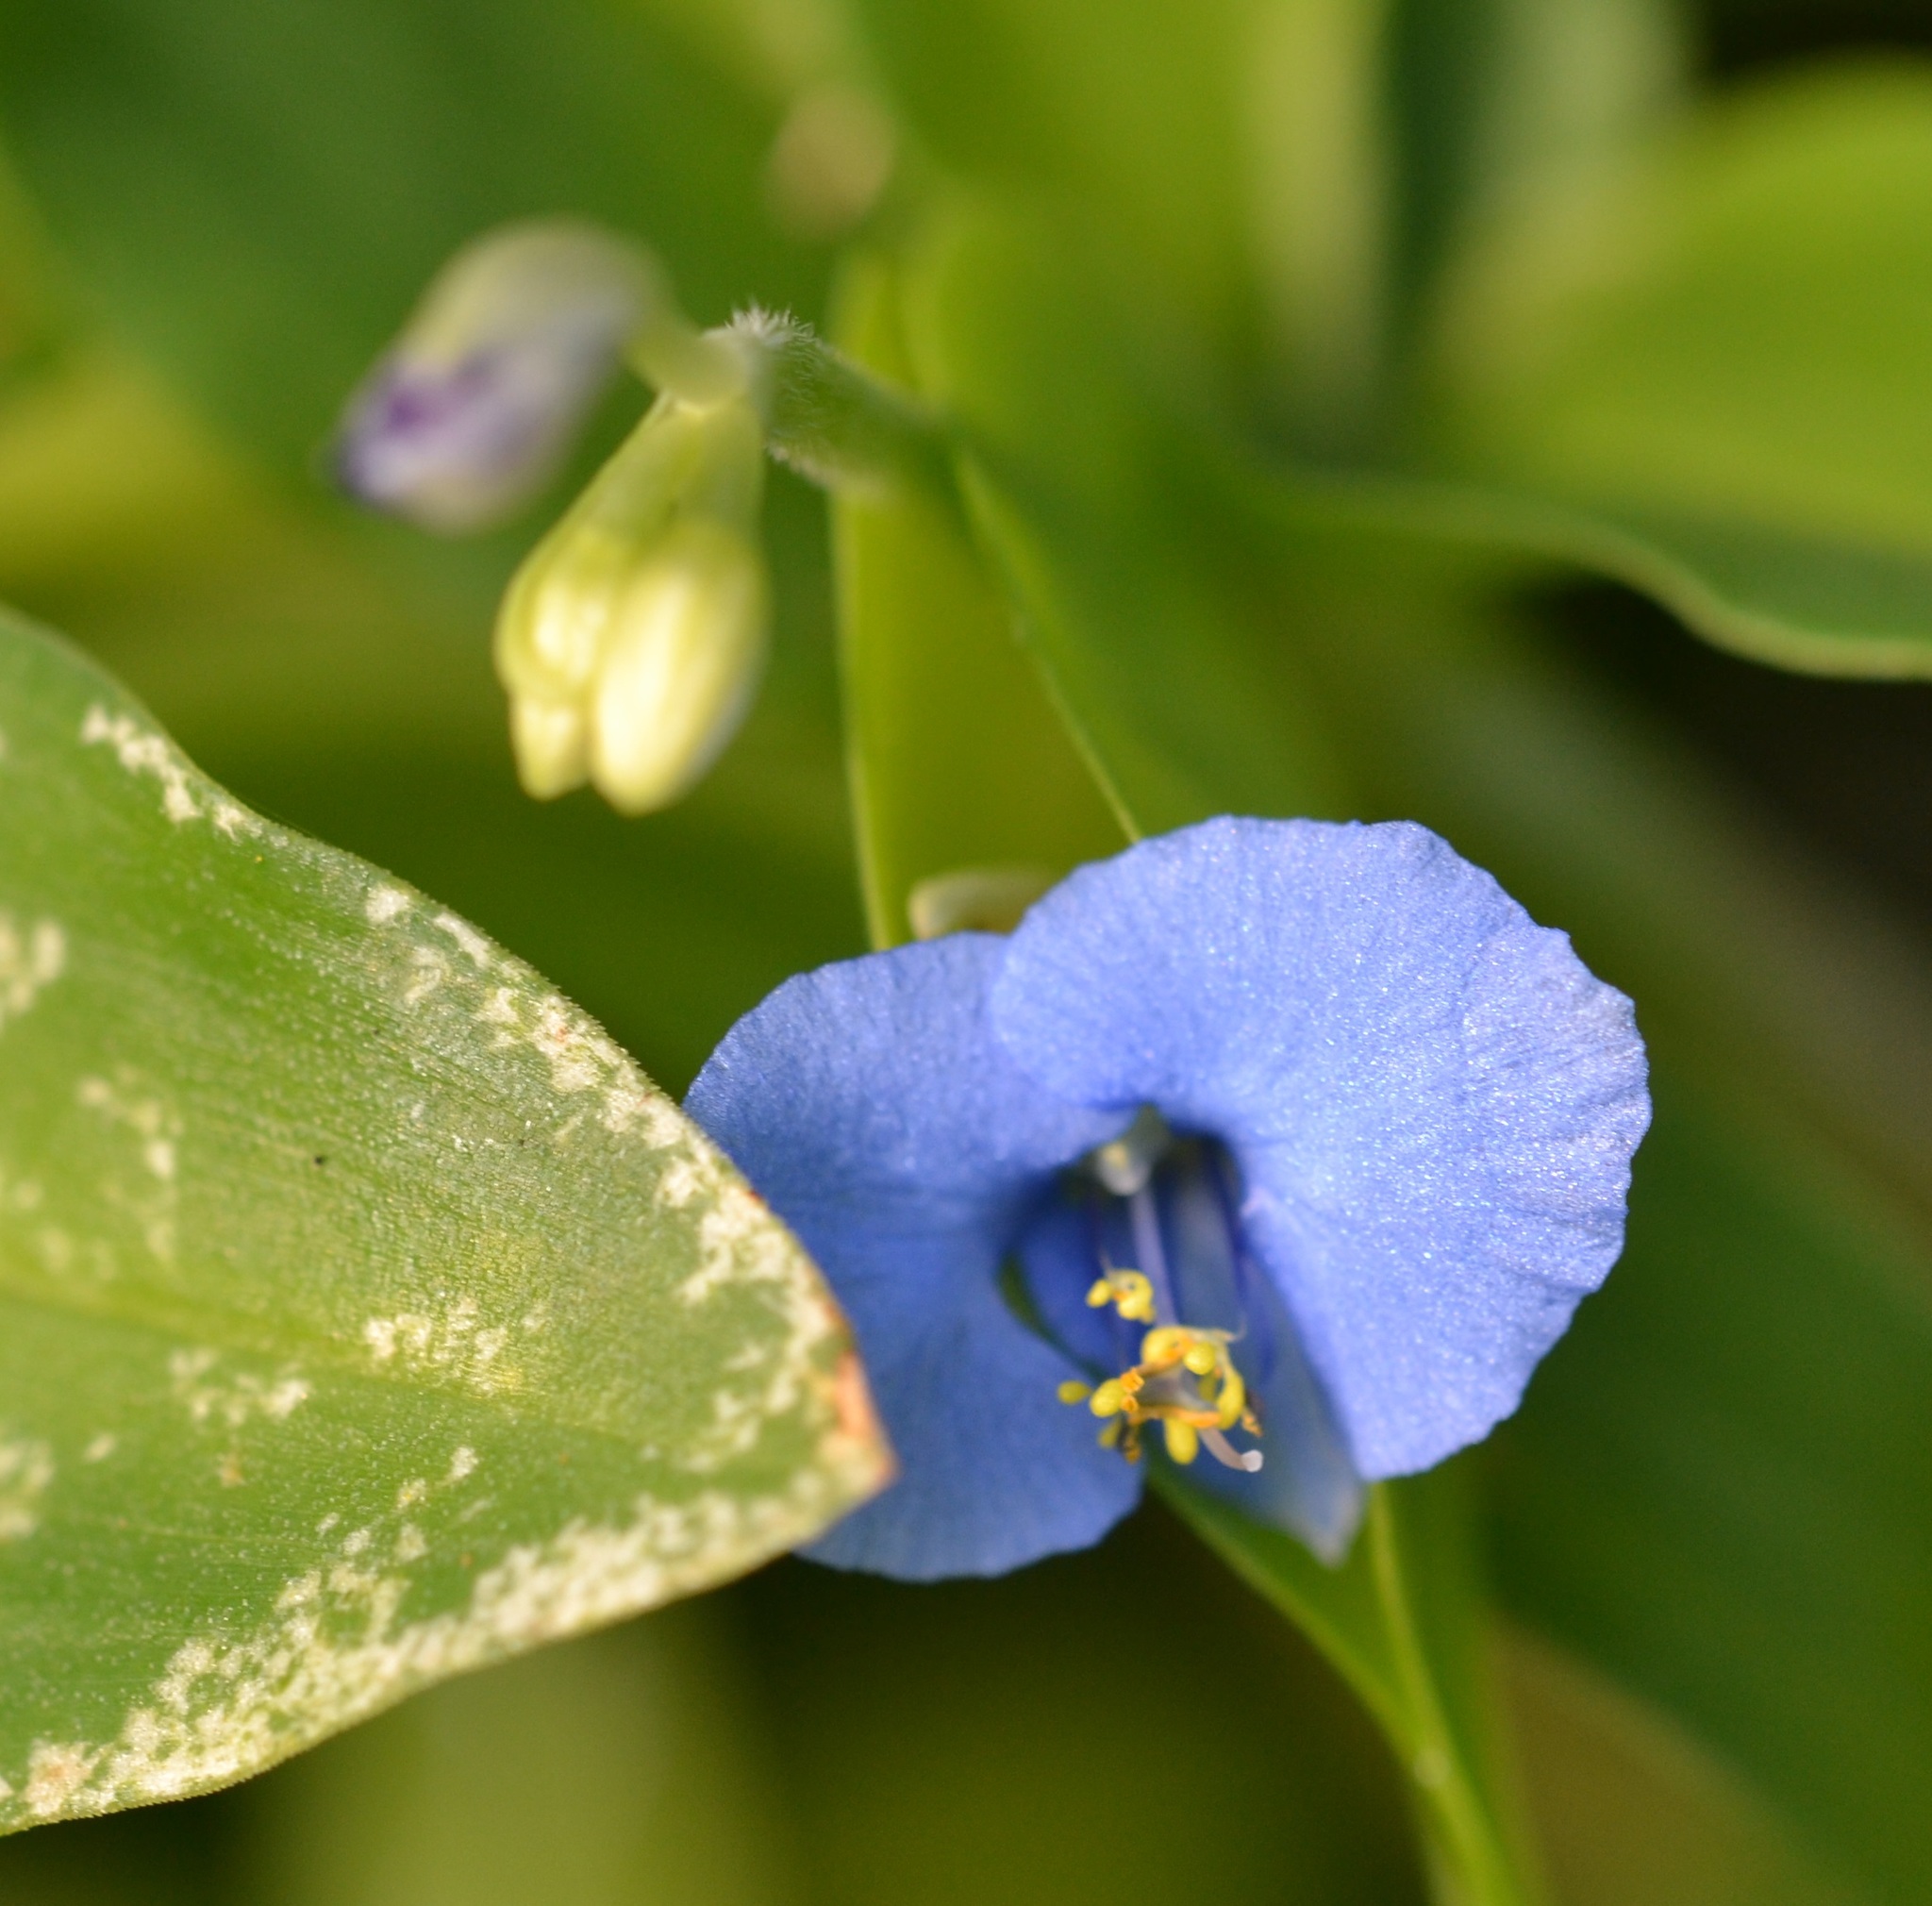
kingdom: Plantae
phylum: Tracheophyta
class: Liliopsida
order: Commelinales
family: Commelinaceae
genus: Commelina
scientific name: Commelina diffusa
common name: Climbing dayflower
